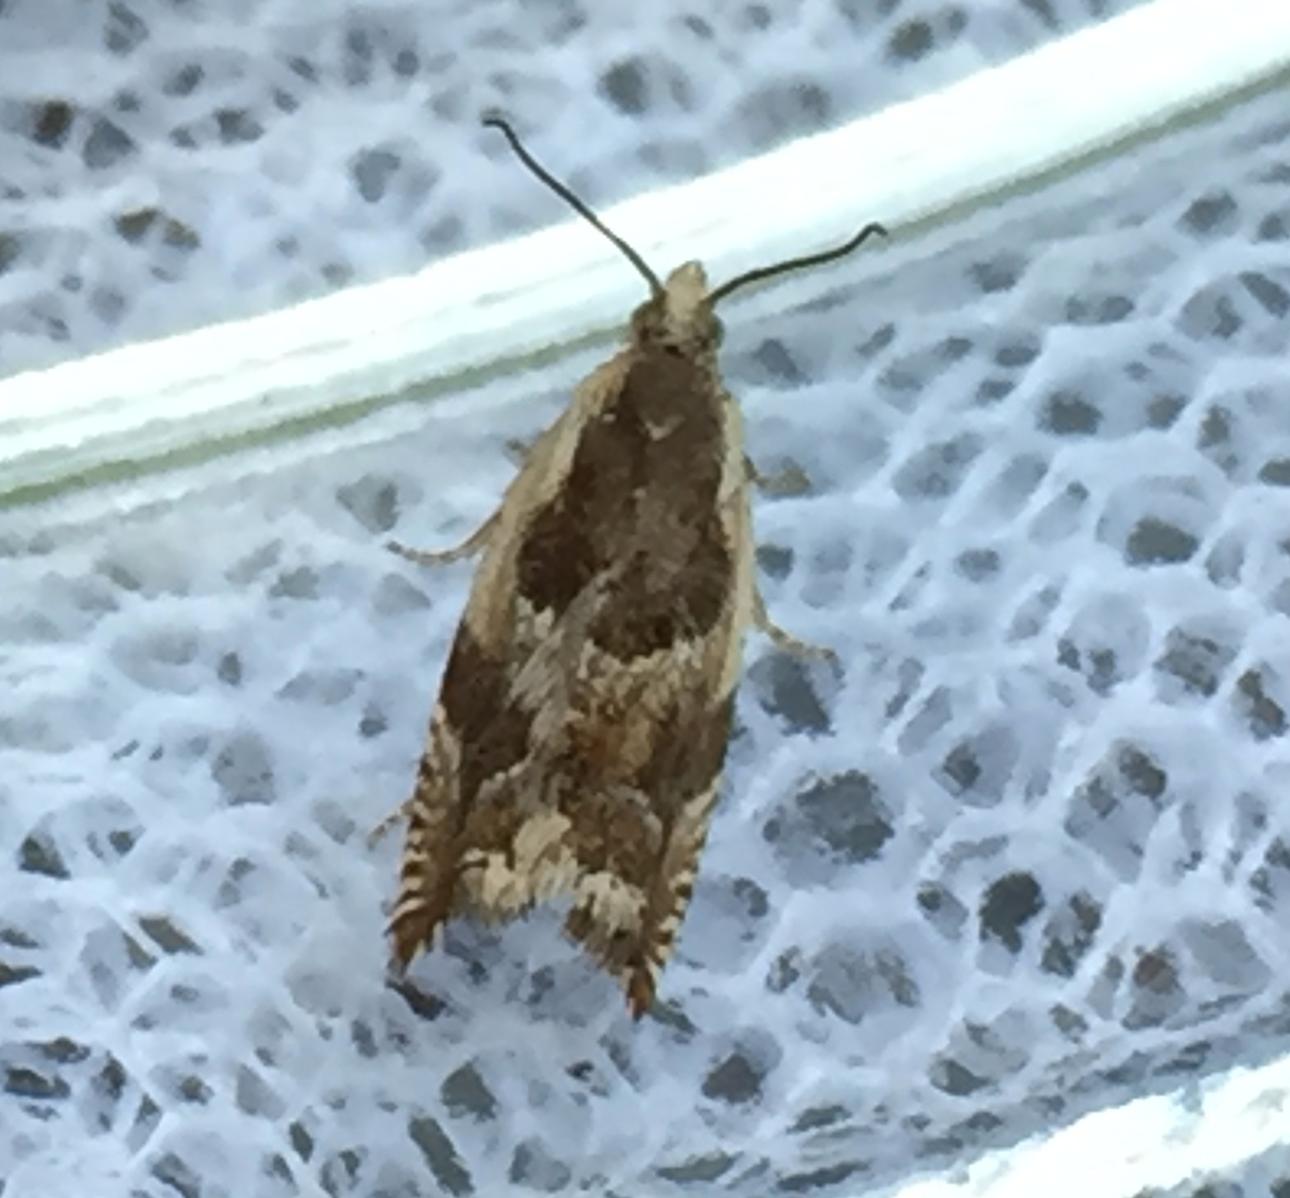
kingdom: Animalia
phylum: Arthropoda
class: Insecta
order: Lepidoptera
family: Tortricidae
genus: Ancylis
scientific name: Ancylis subaequana
